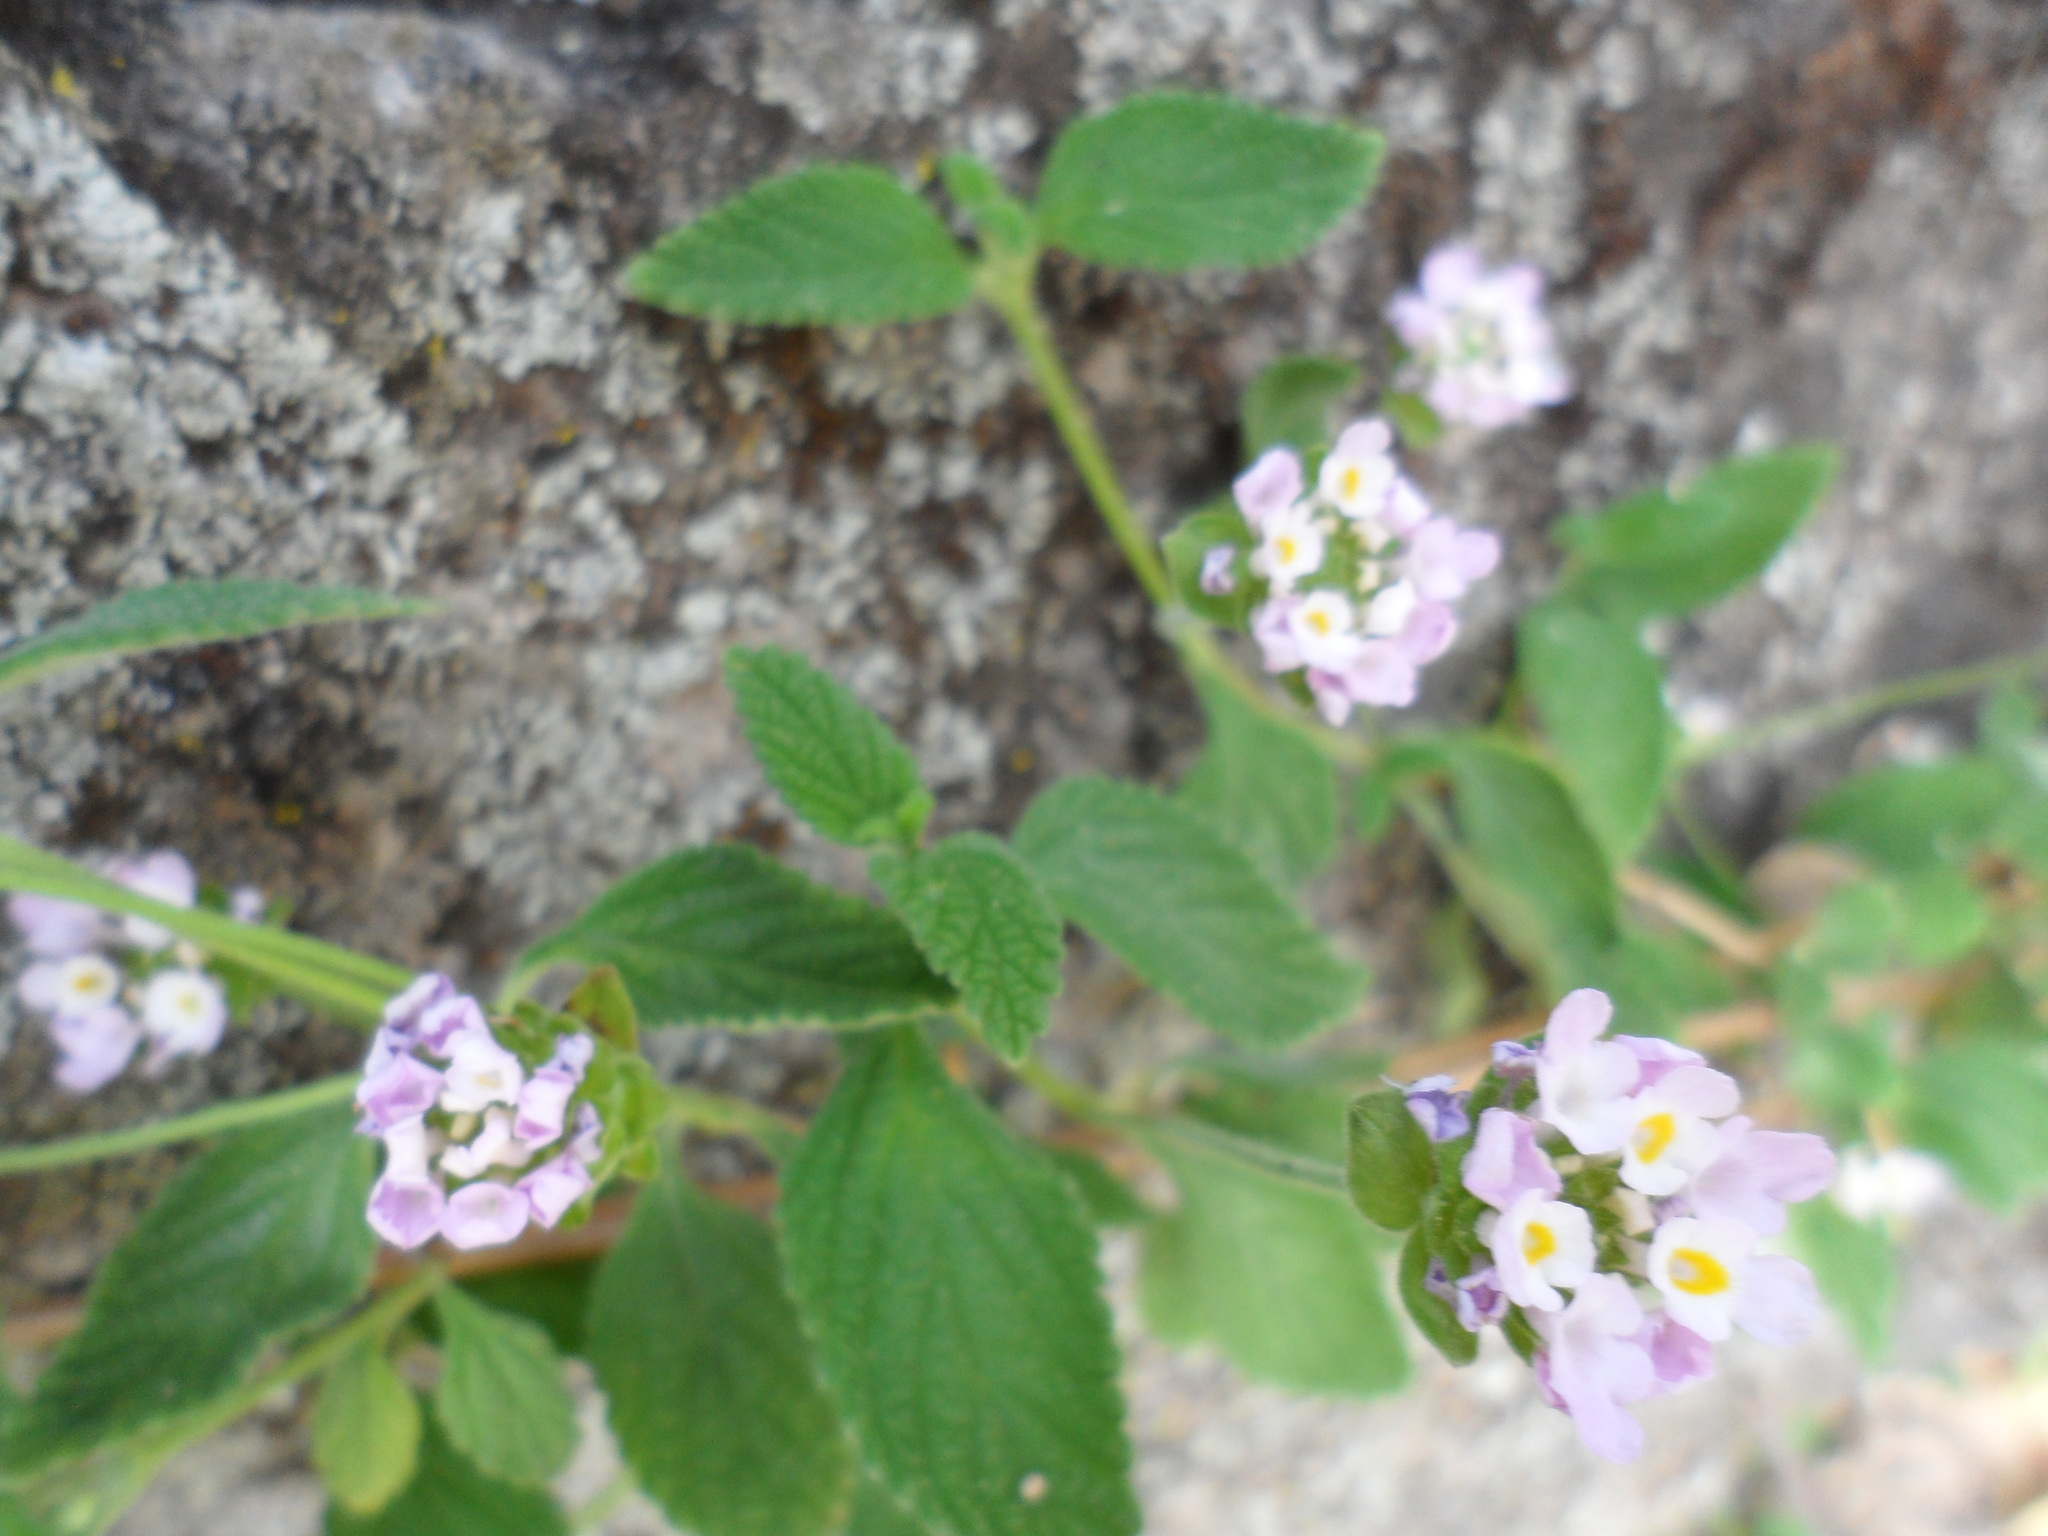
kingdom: Plantae
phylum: Tracheophyta
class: Magnoliopsida
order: Lamiales
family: Verbenaceae
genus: Lantana
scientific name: Lantana camara
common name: Lantana
